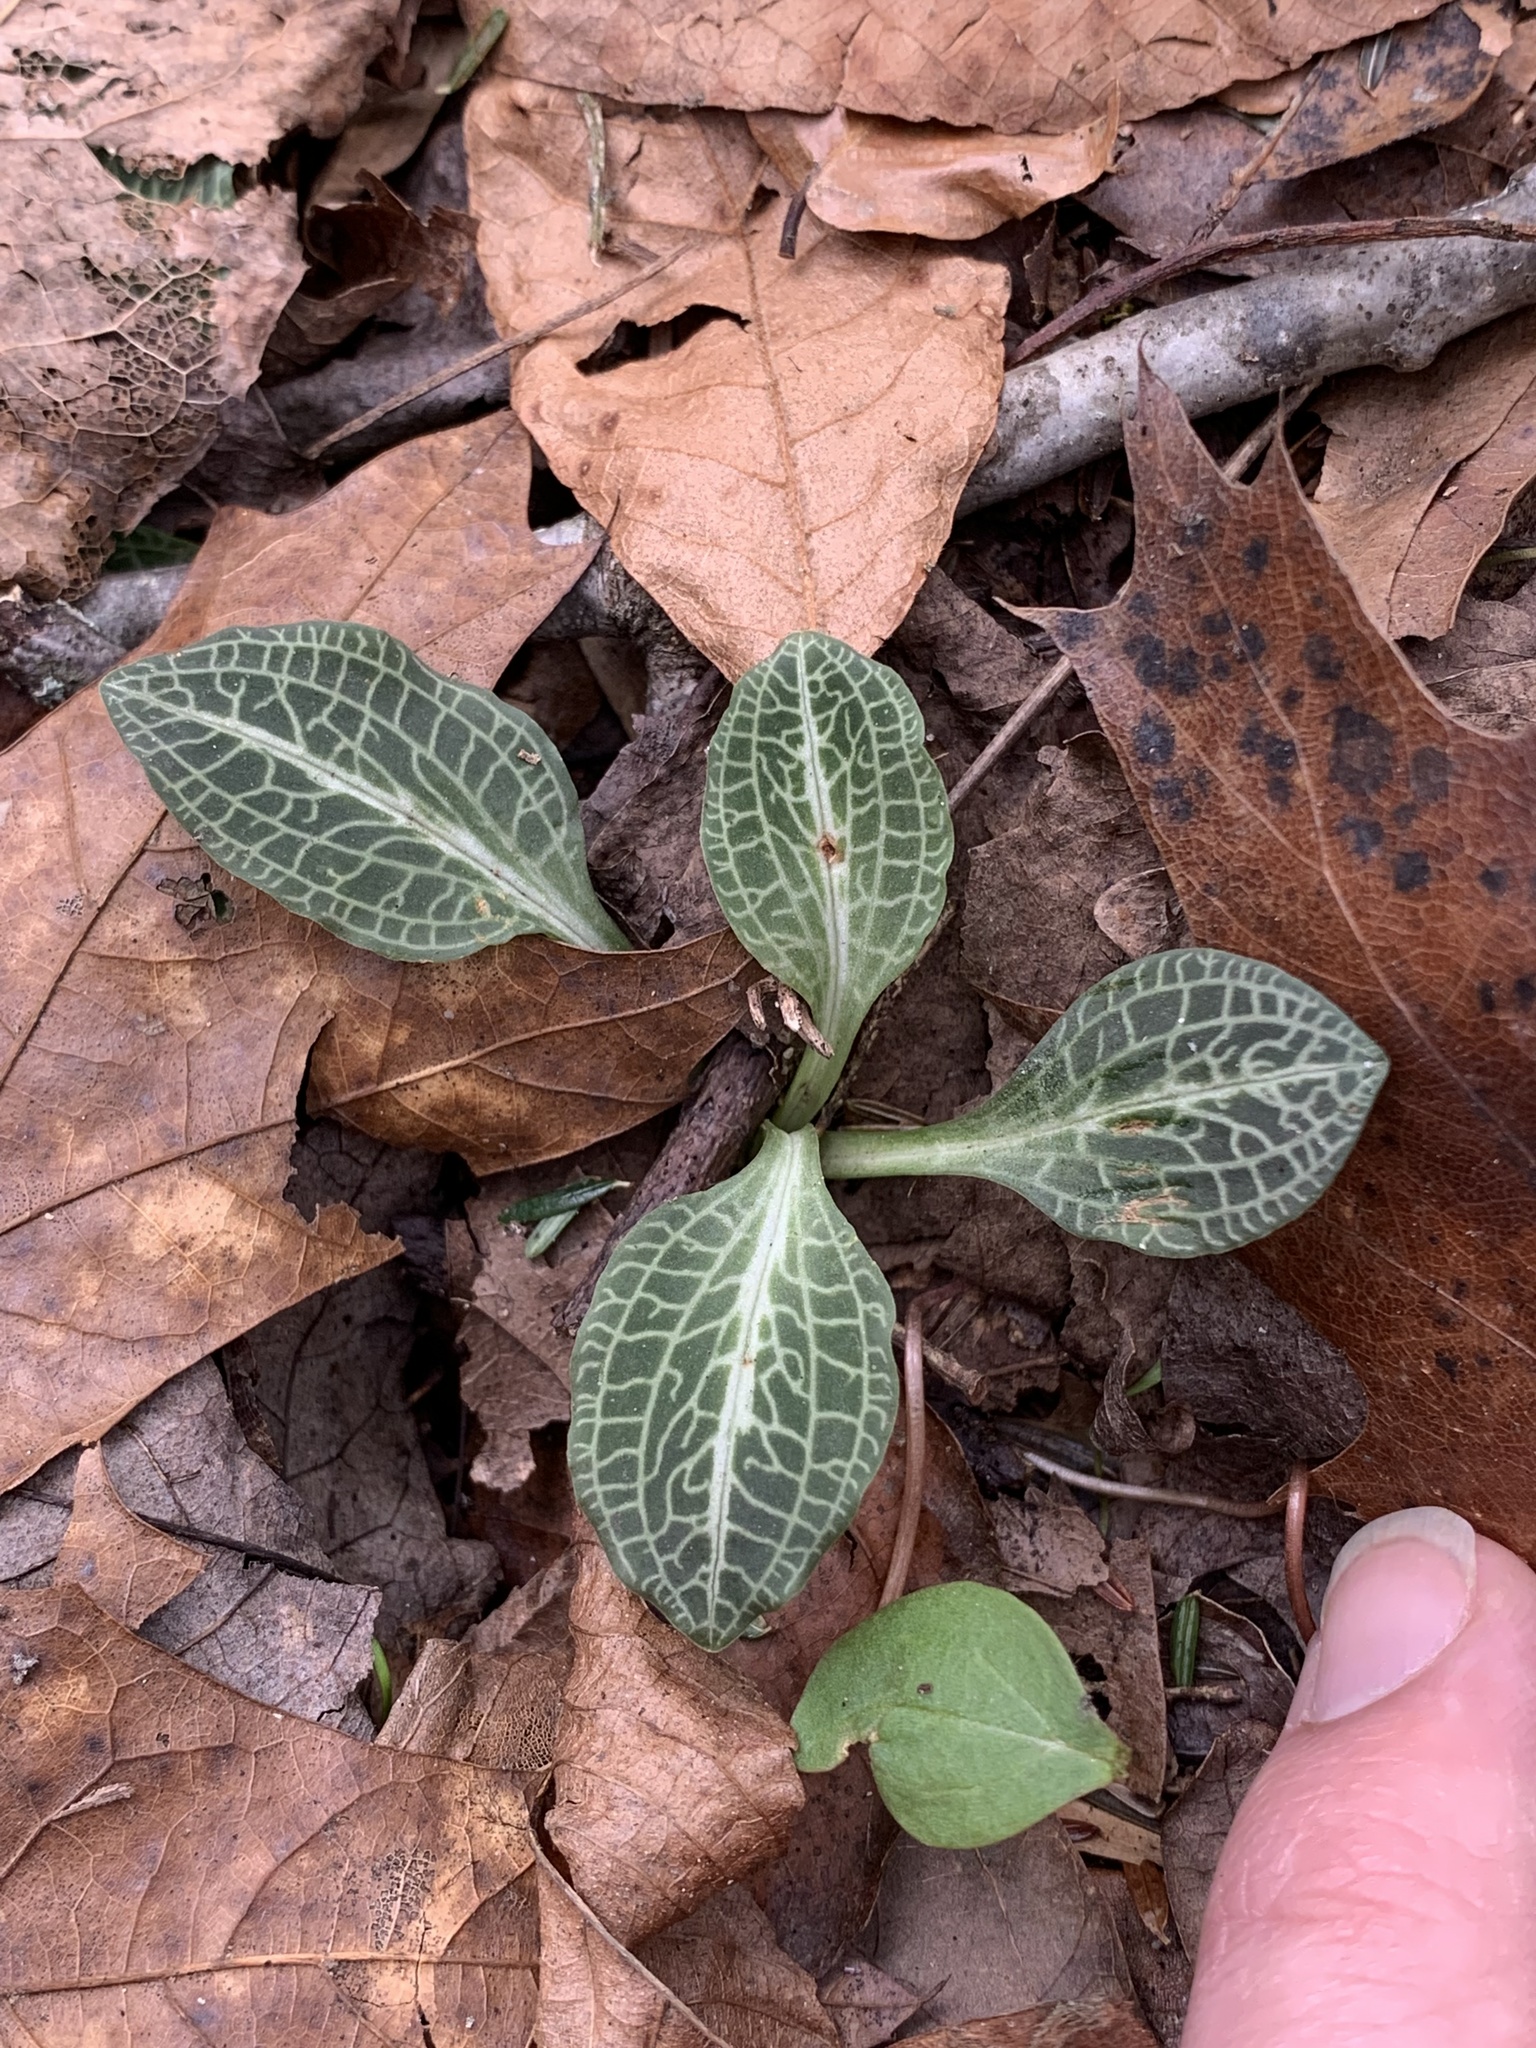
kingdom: Plantae
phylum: Tracheophyta
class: Liliopsida
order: Asparagales
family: Orchidaceae
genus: Goodyera
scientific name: Goodyera pubescens
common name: Downy rattlesnake-plantain
